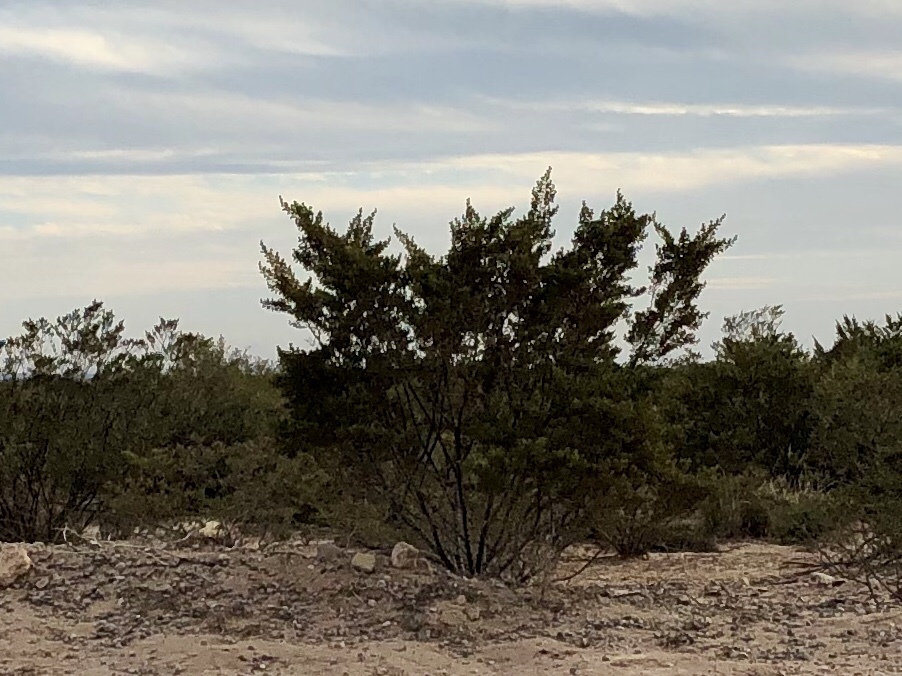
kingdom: Plantae
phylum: Tracheophyta
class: Magnoliopsida
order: Zygophyllales
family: Zygophyllaceae
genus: Larrea
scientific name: Larrea tridentata
